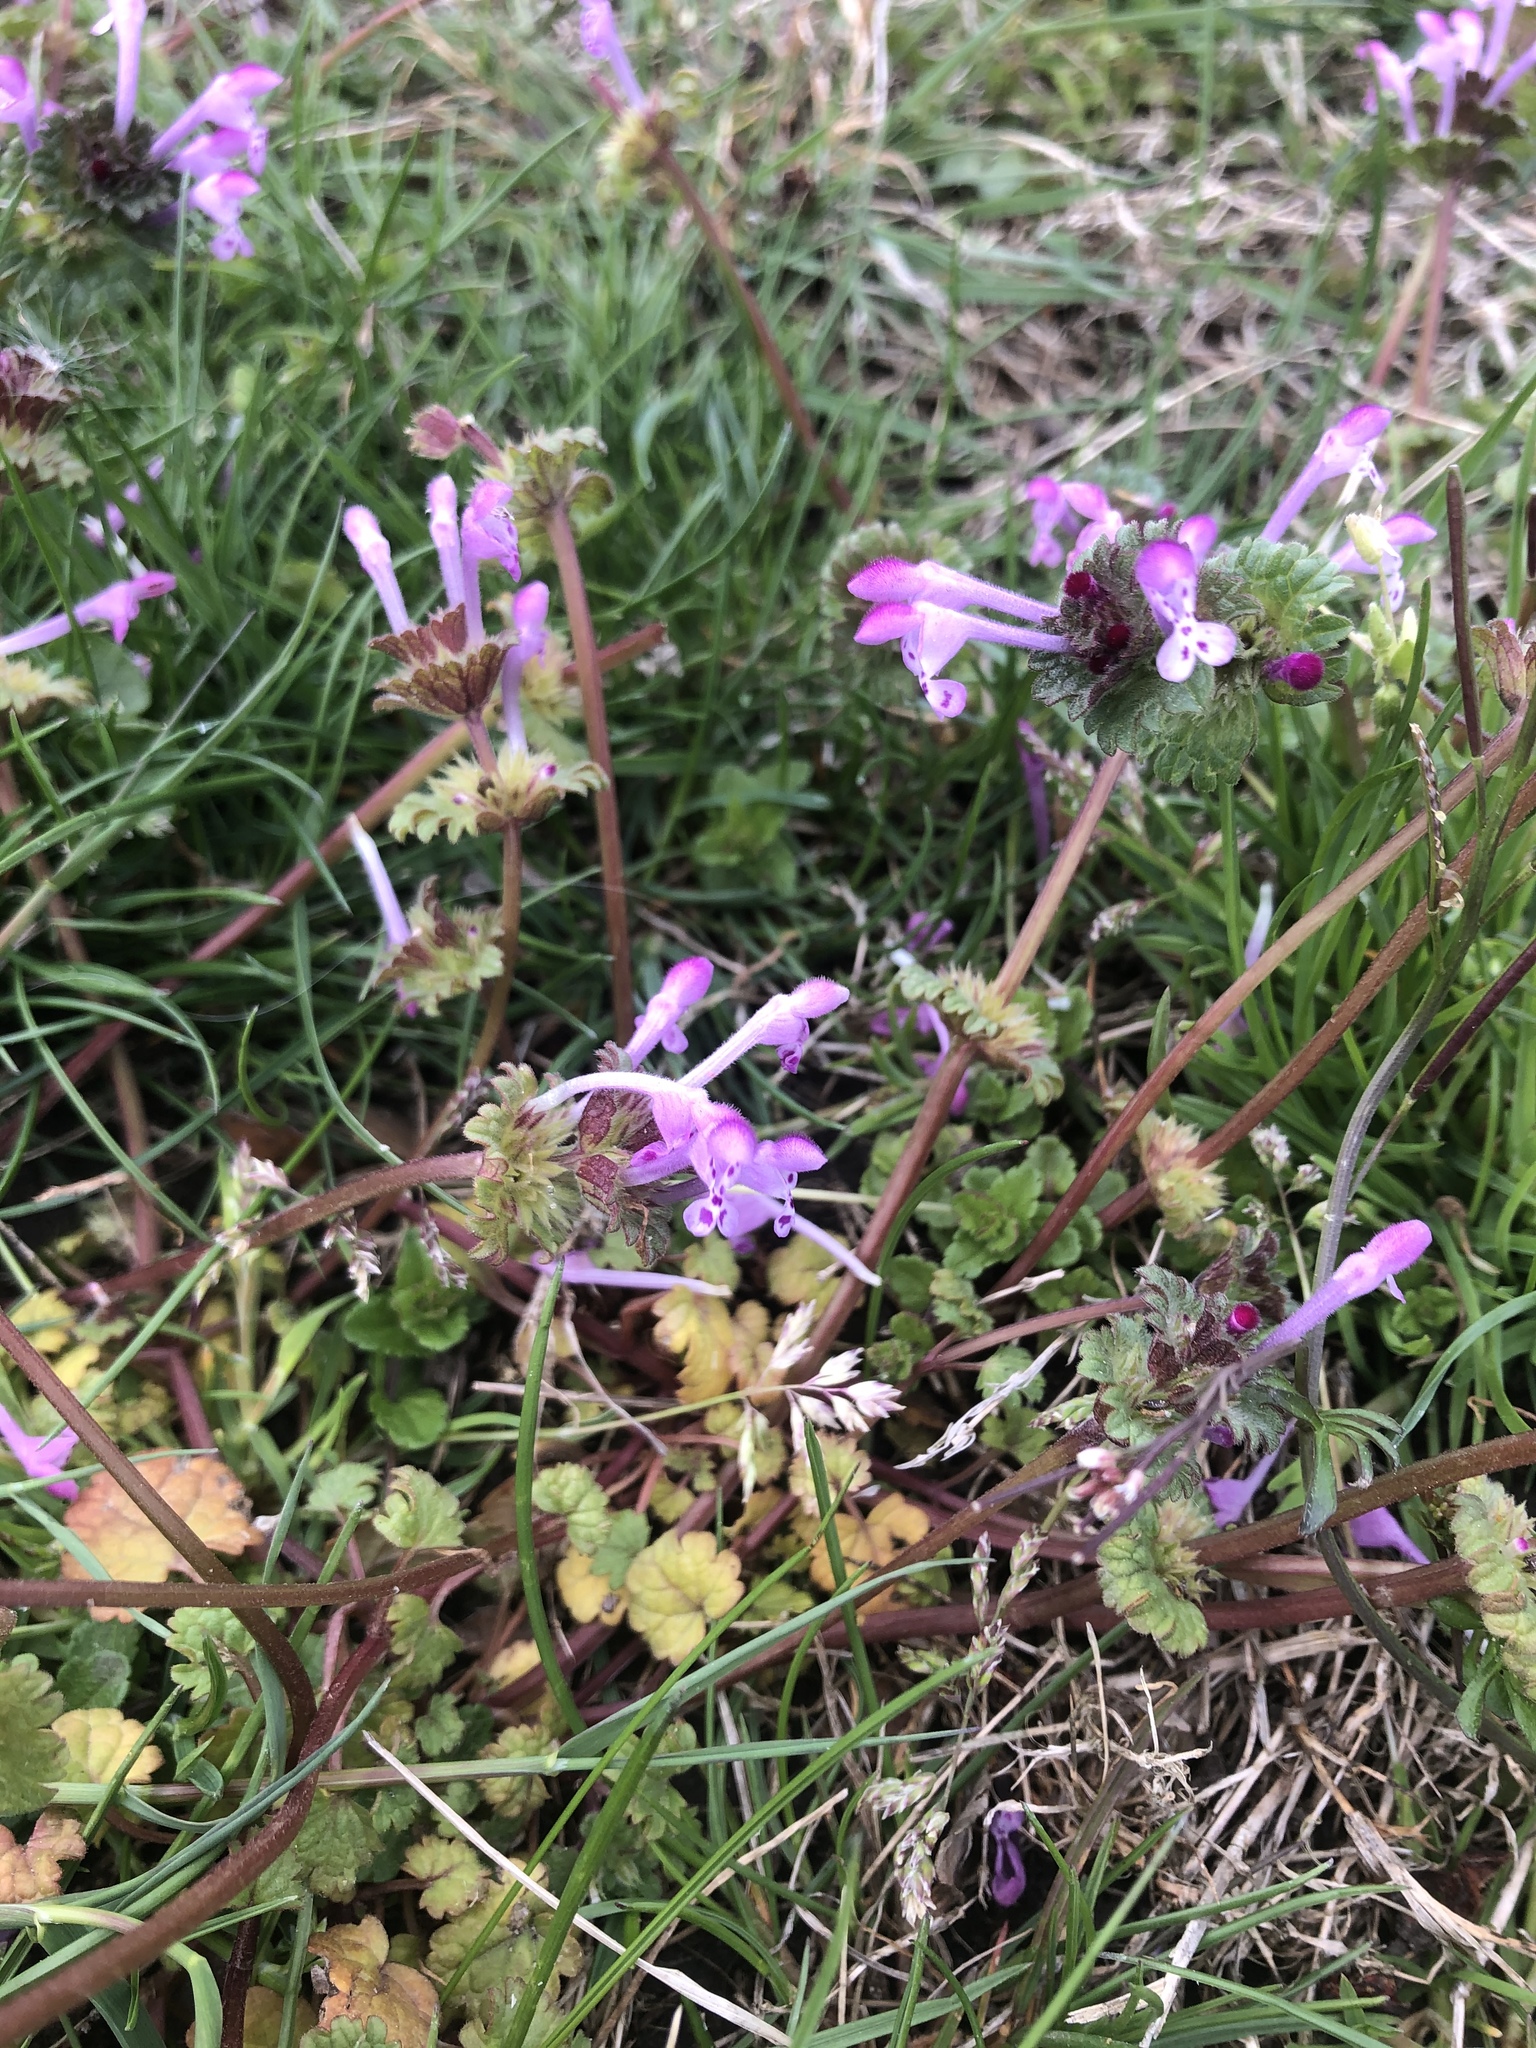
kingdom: Plantae
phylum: Tracheophyta
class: Magnoliopsida
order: Lamiales
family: Lamiaceae
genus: Lamium
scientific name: Lamium amplexicaule
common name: Henbit dead-nettle
